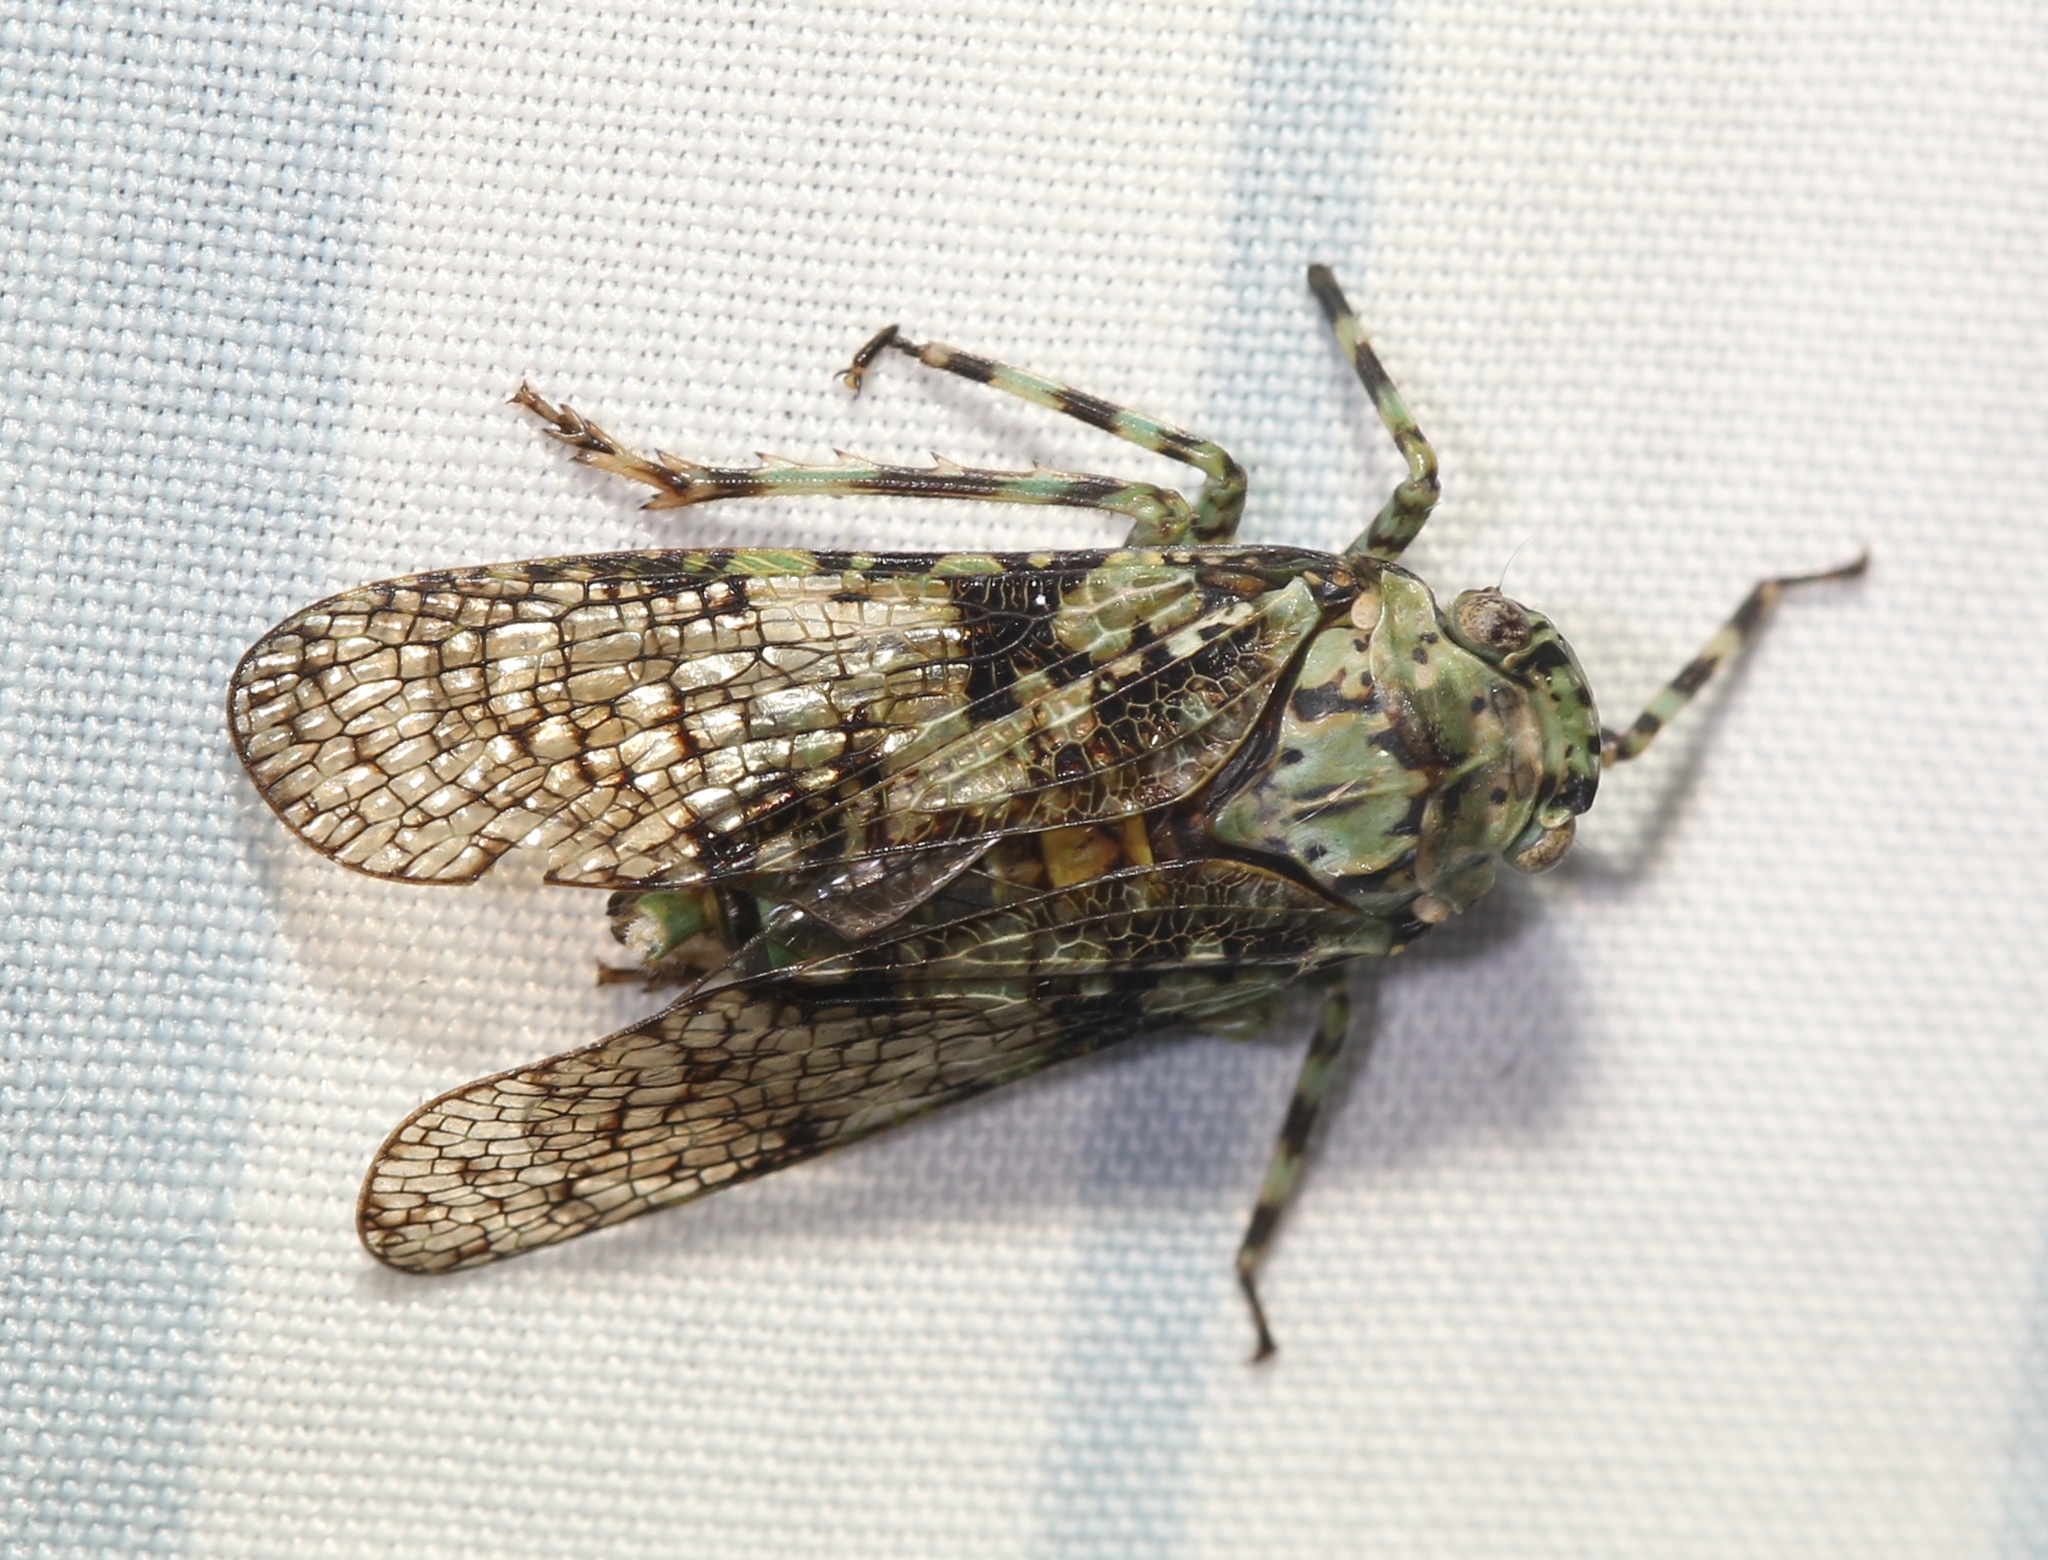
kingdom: Animalia
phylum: Arthropoda
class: Insecta
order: Hemiptera
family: Fulgoridae
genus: Calyptoproctus
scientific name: Calyptoproctus marmoratus
